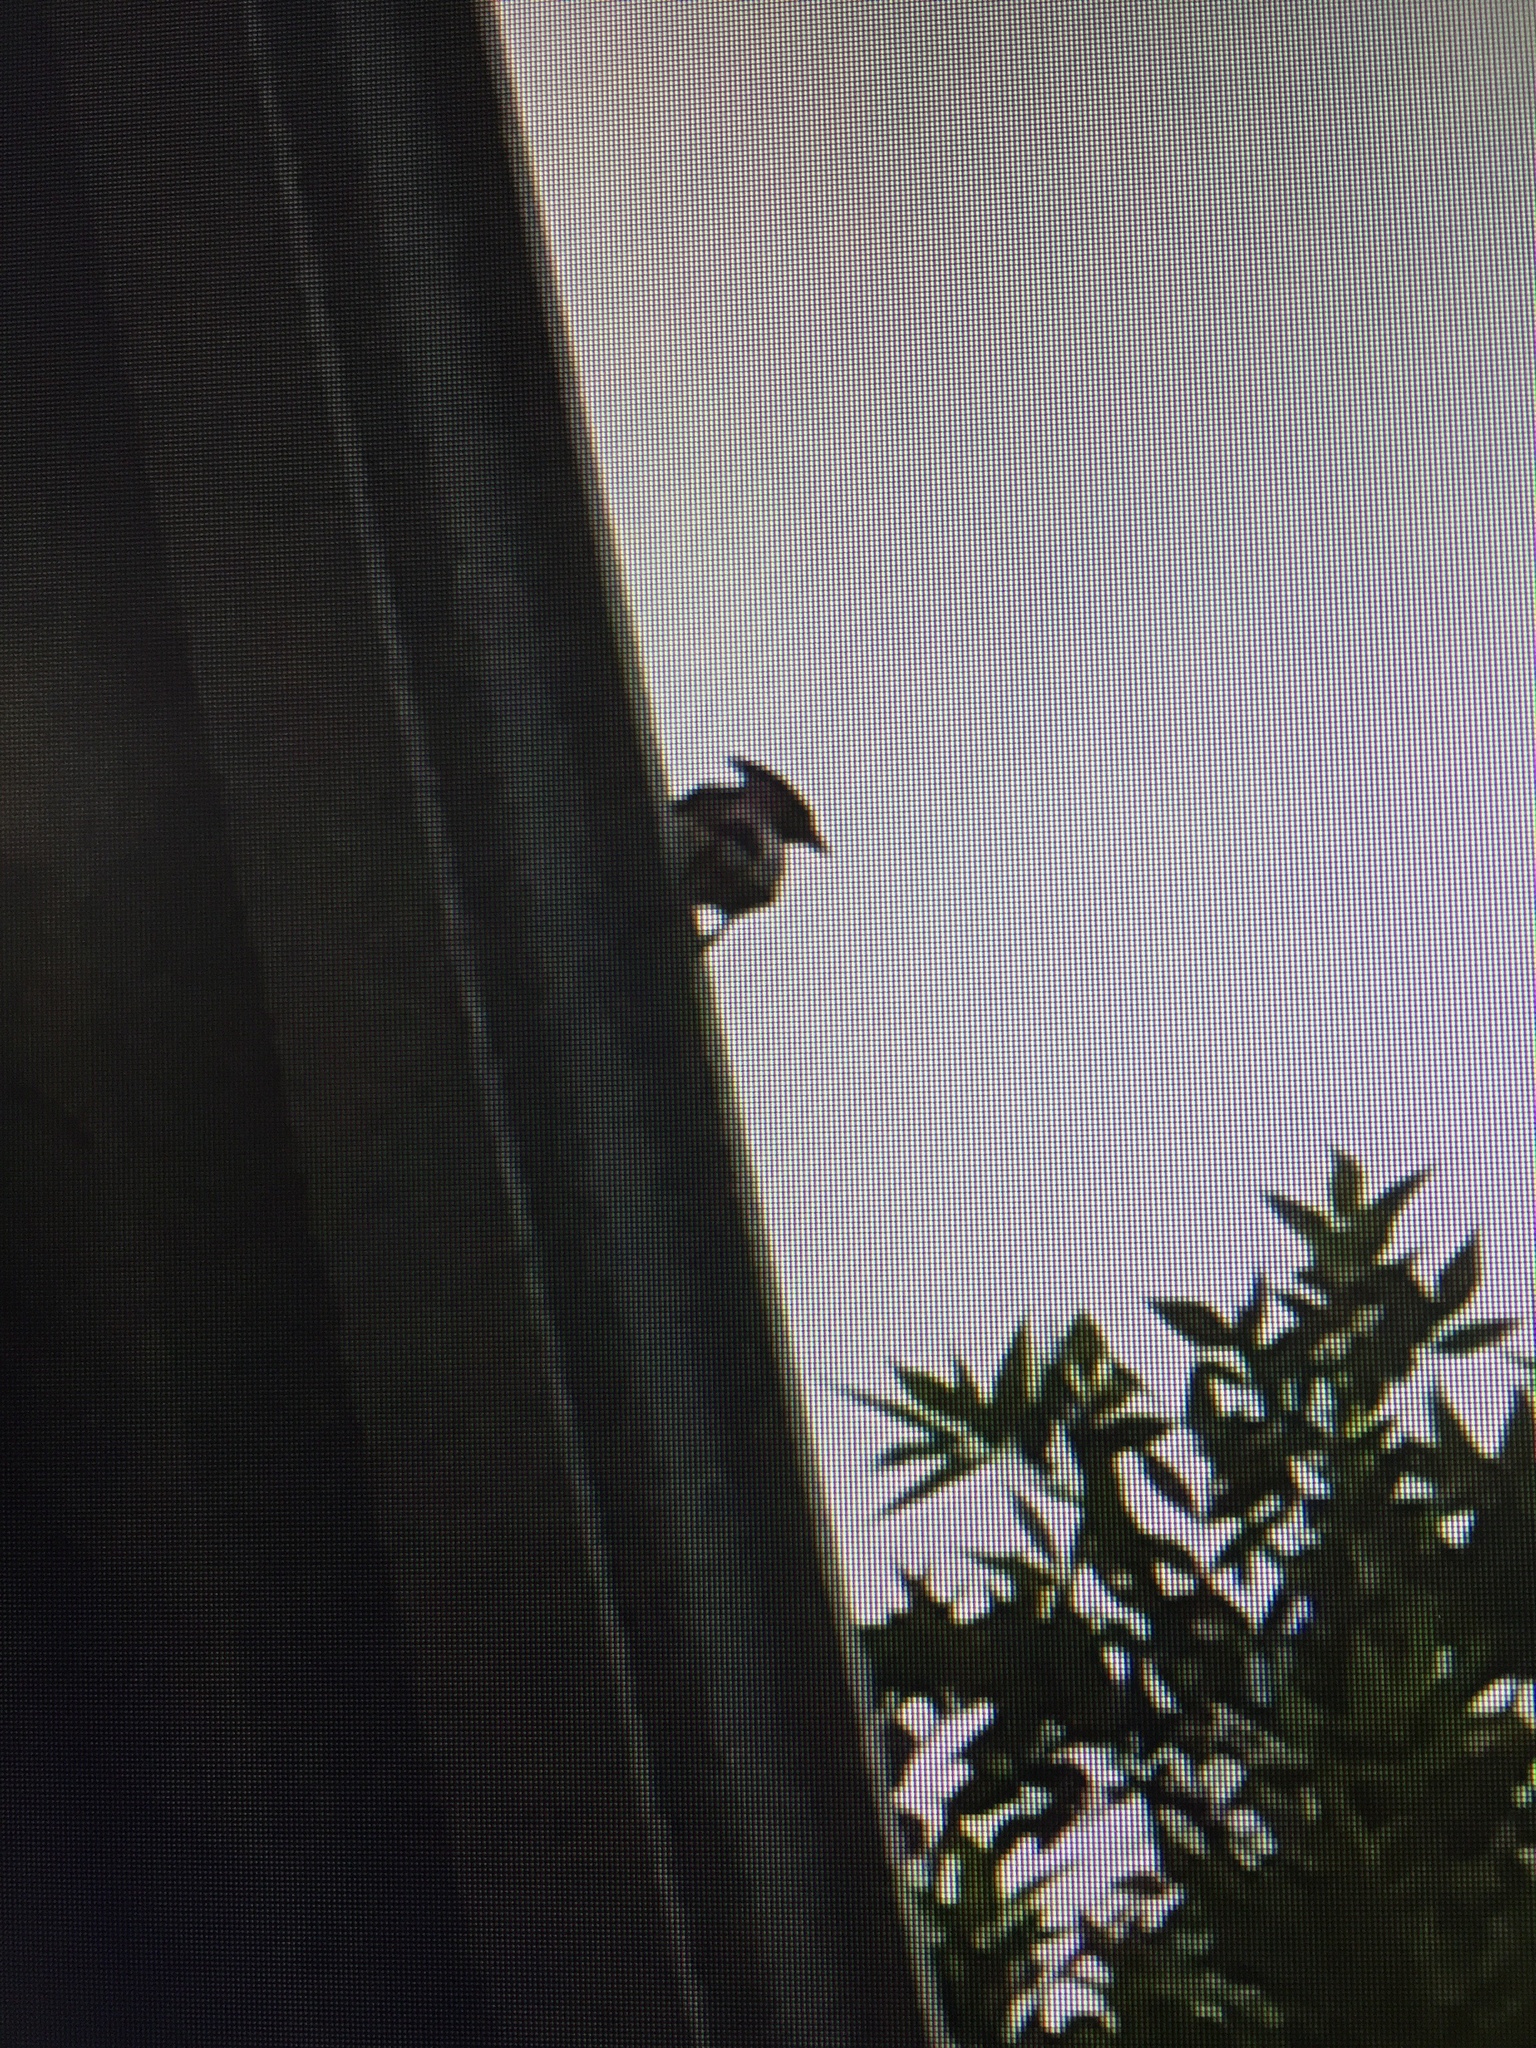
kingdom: Animalia
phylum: Chordata
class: Aves
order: Passeriformes
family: Bombycillidae
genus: Bombycilla
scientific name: Bombycilla cedrorum
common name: Cedar waxwing
